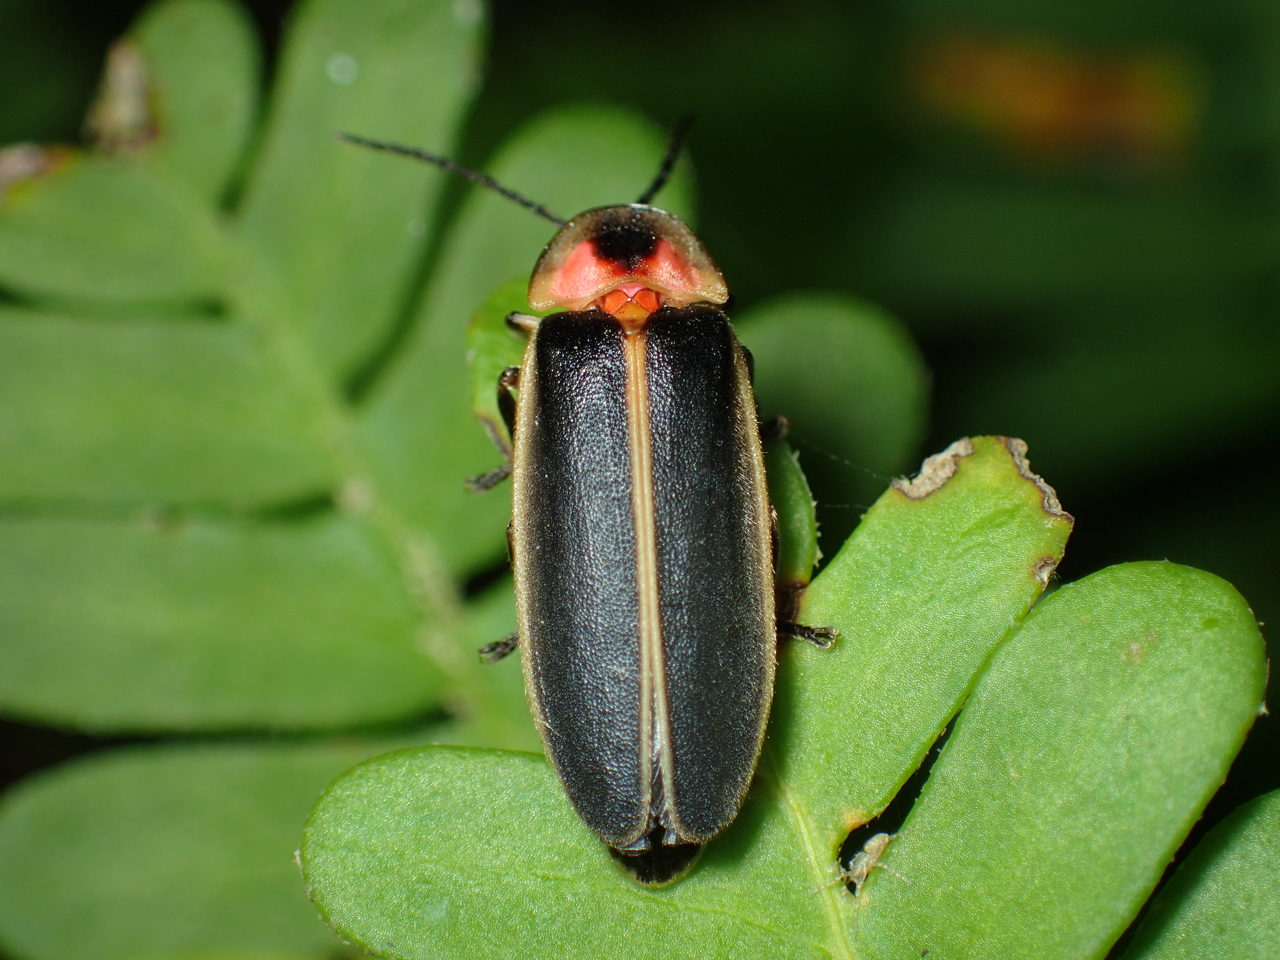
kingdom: Animalia
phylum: Arthropoda
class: Insecta
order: Coleoptera
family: Lampyridae
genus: Photinus
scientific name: Photinus pyralis
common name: Big dipper firefly
